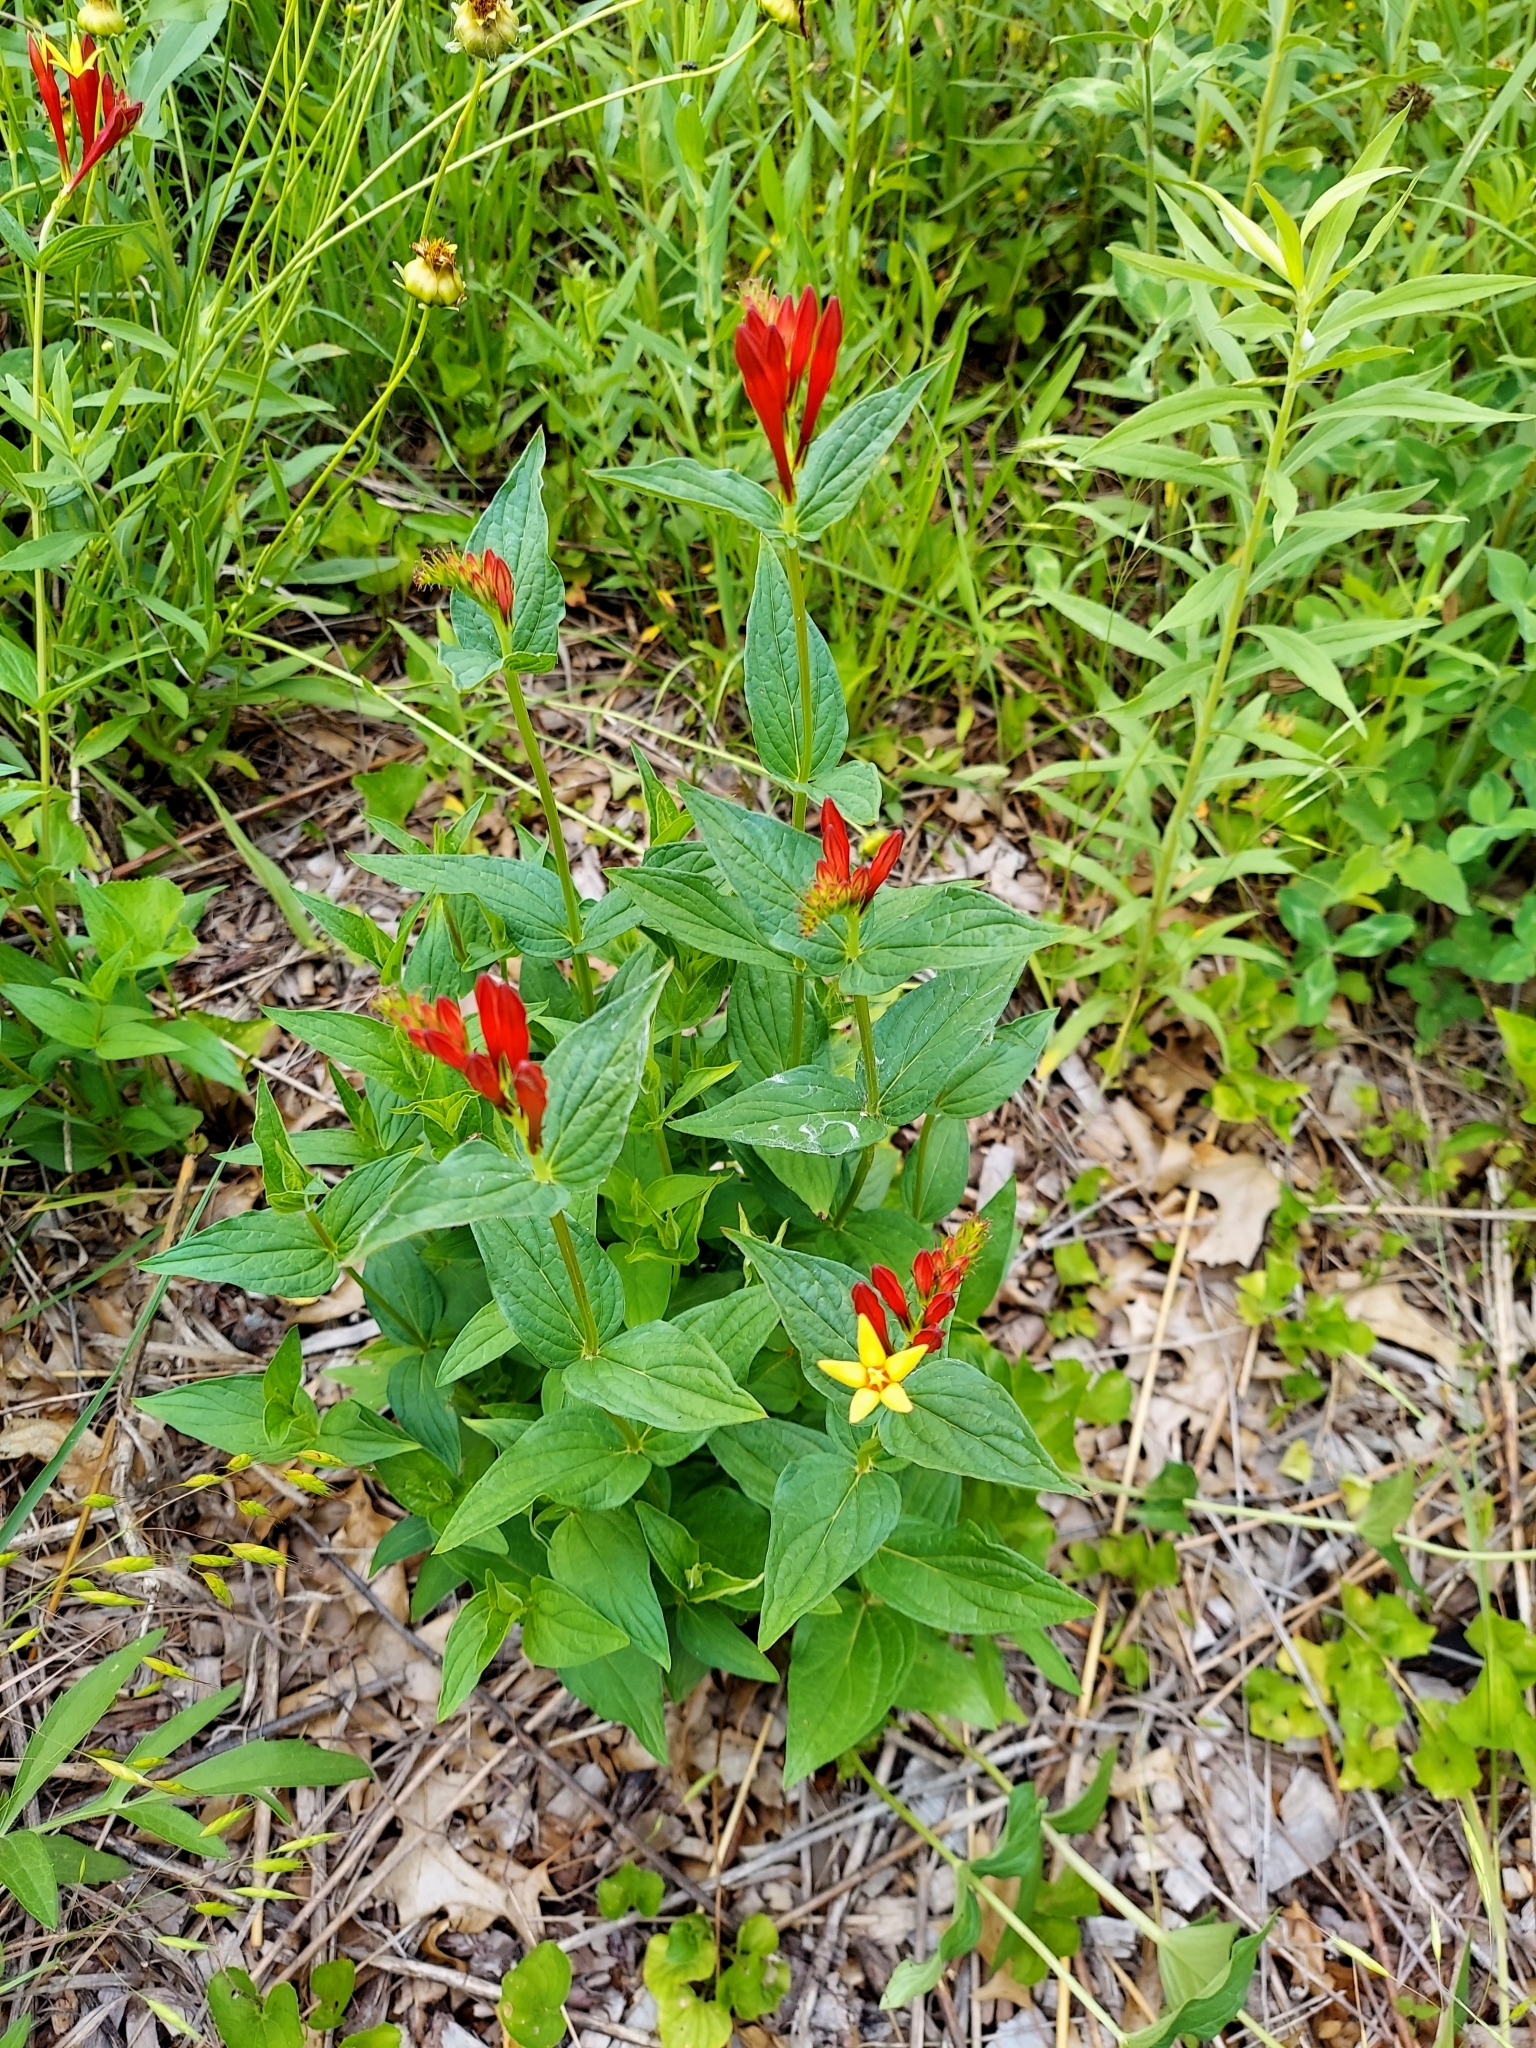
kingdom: Plantae
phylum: Tracheophyta
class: Magnoliopsida
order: Gentianales
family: Loganiaceae
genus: Spigelia
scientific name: Spigelia marilandica
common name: Indian-pink
